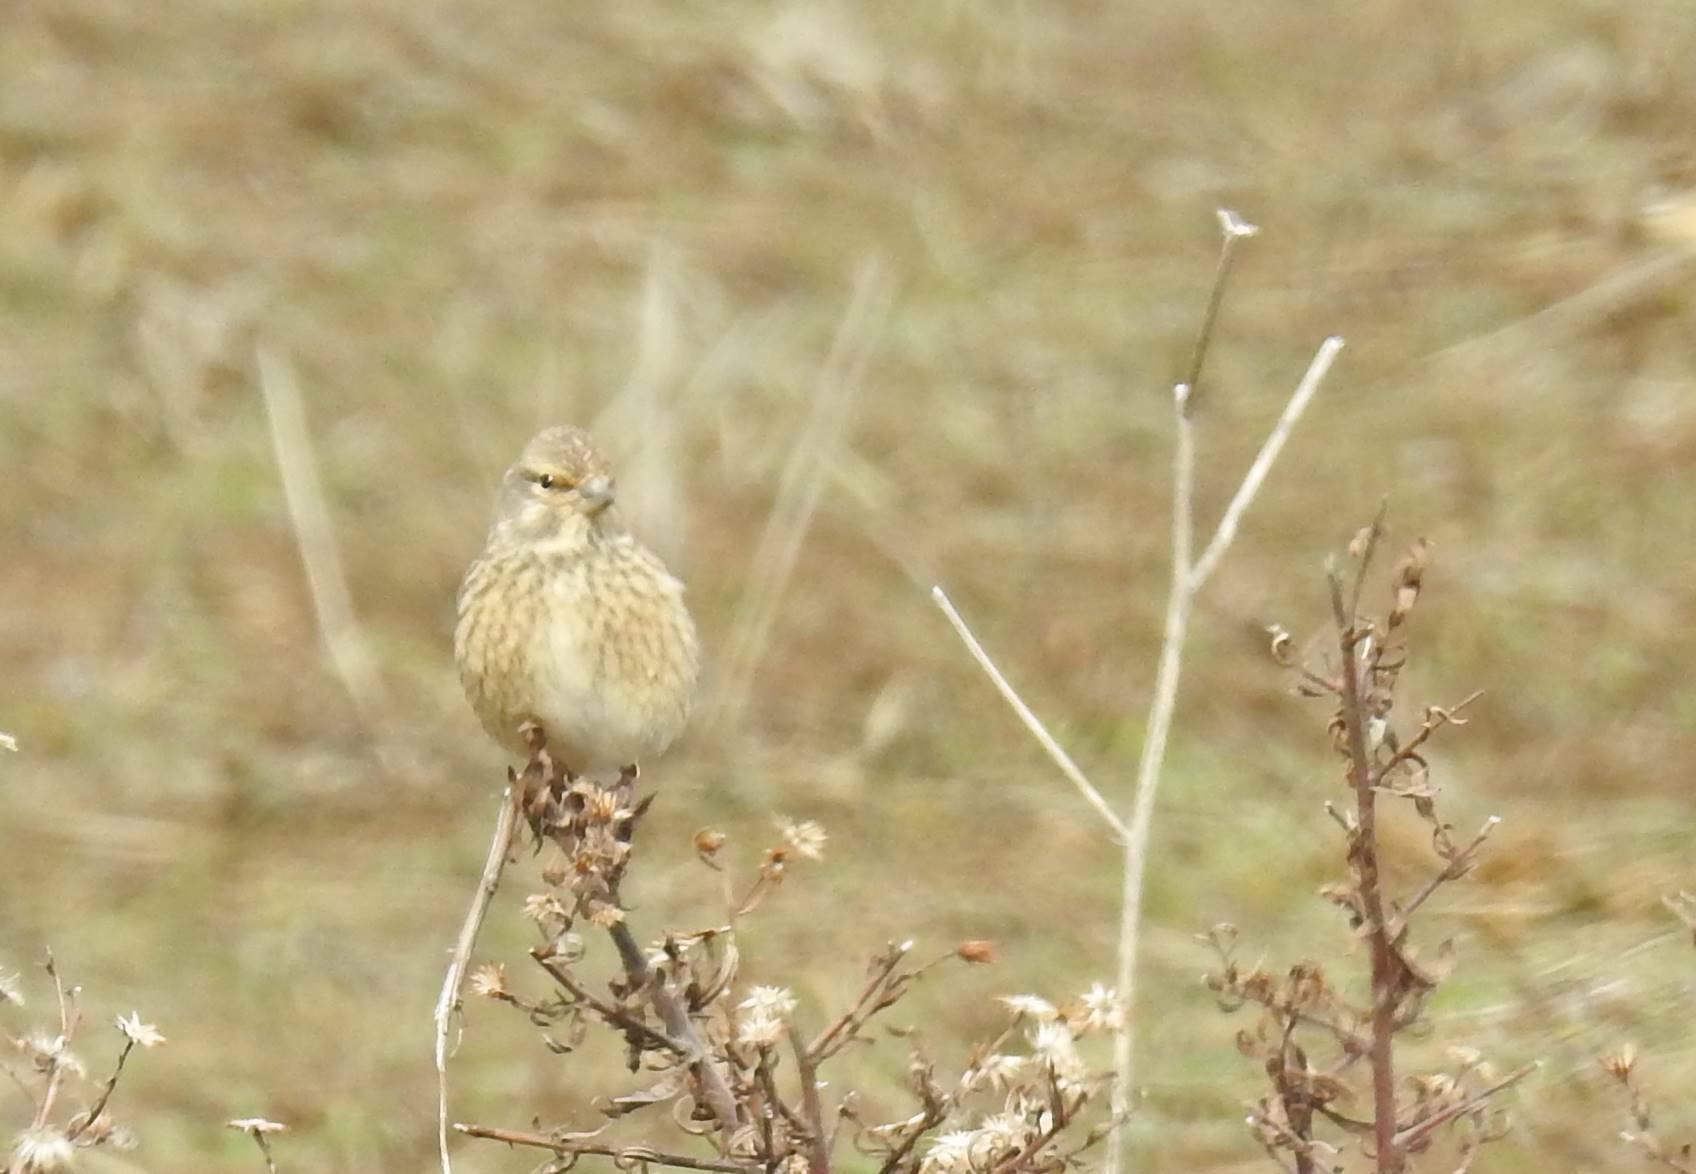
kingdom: Animalia
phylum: Chordata
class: Aves
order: Passeriformes
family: Fringillidae
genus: Linaria
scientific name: Linaria cannabina
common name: Common linnet
